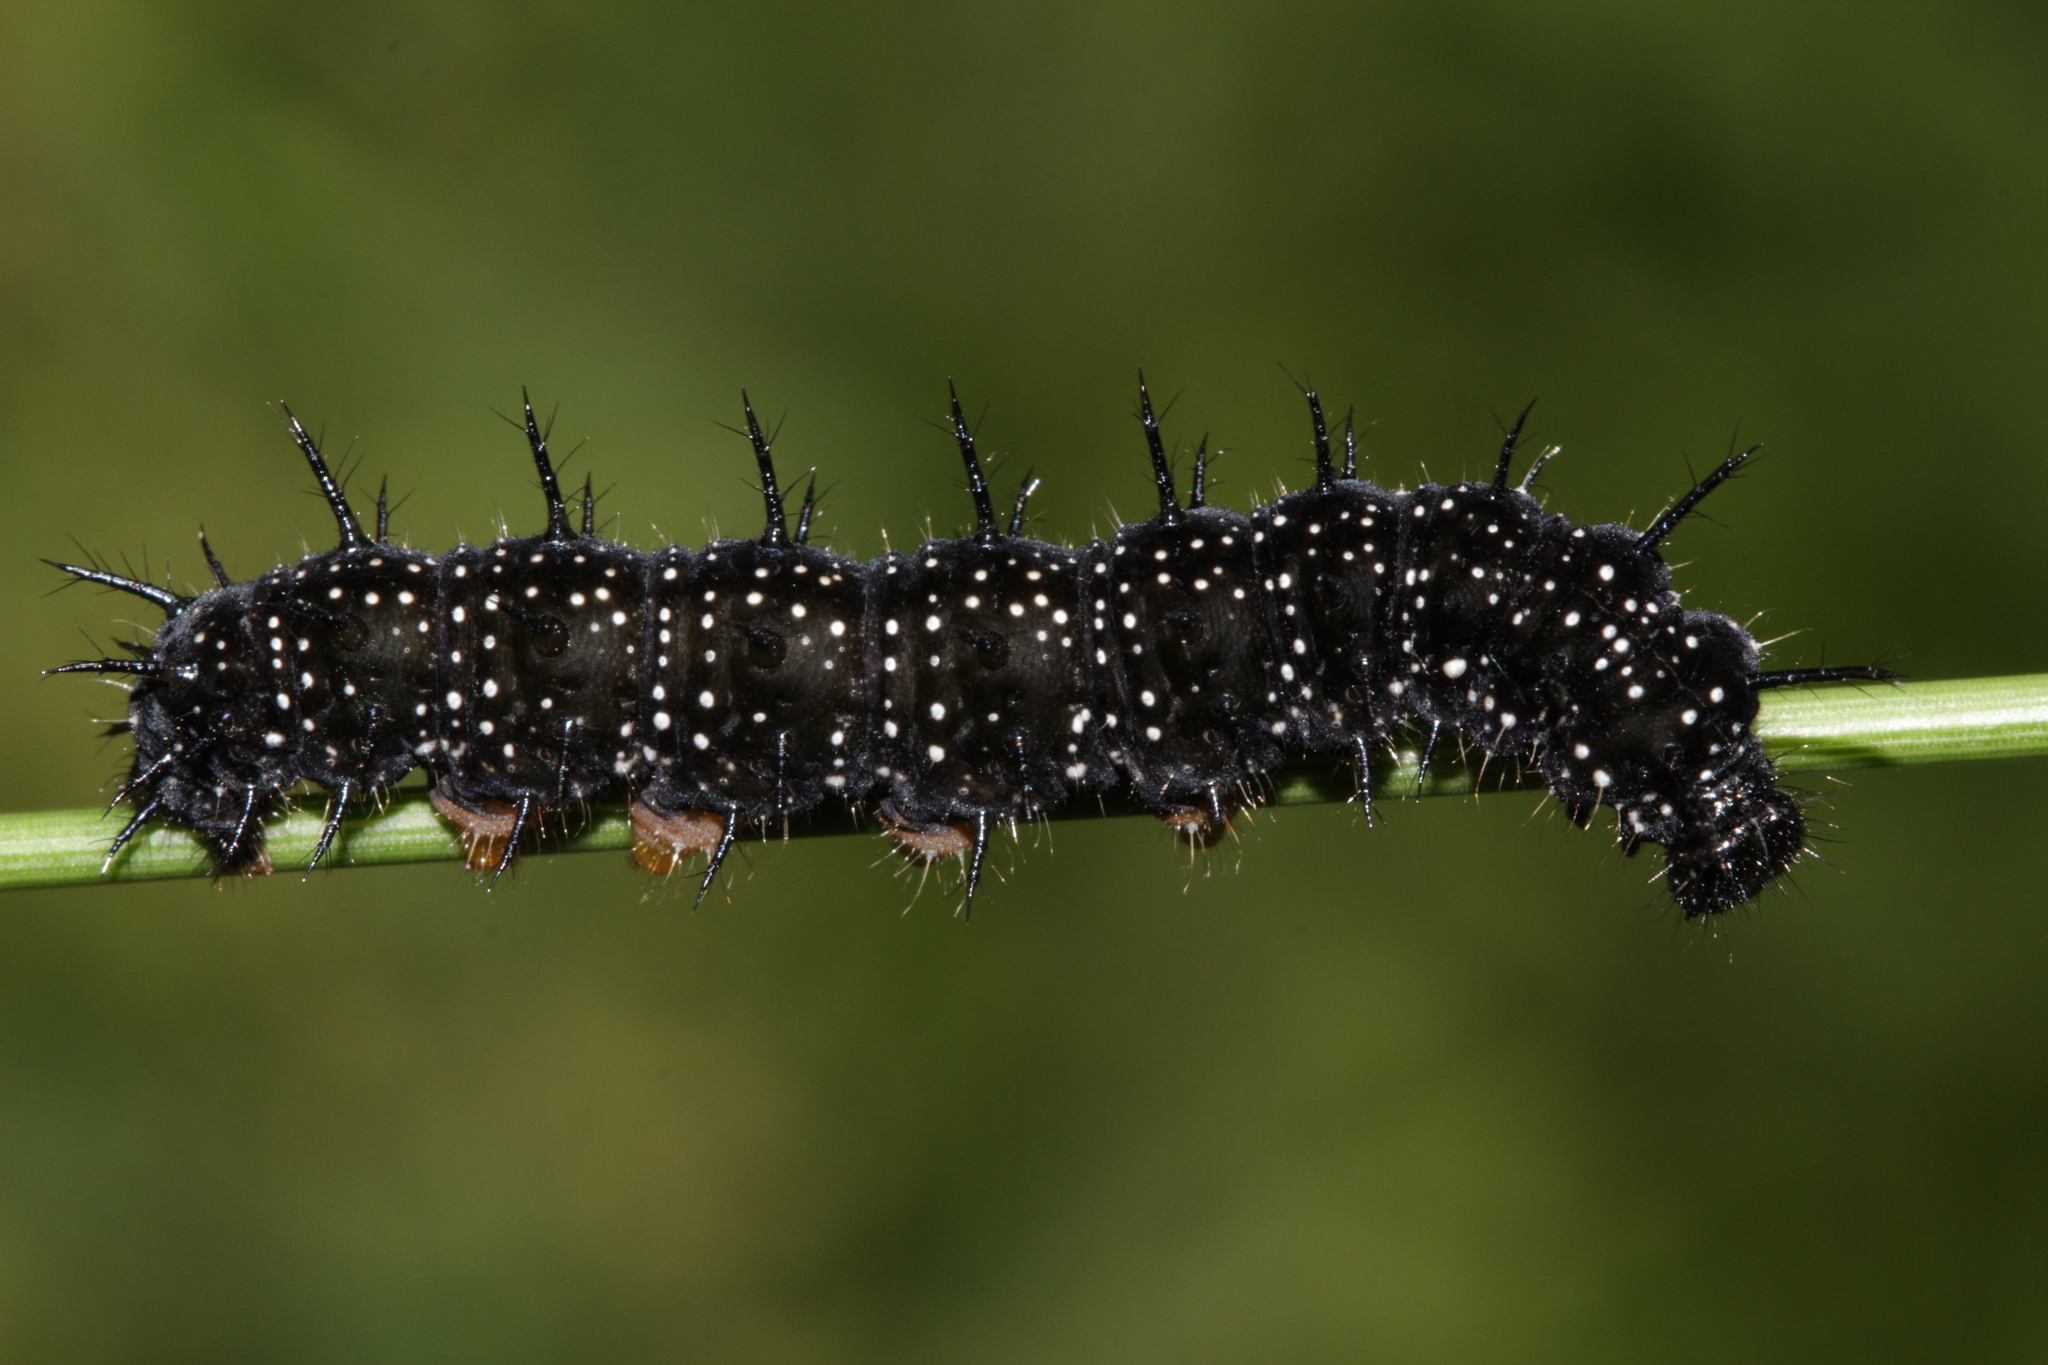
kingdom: Animalia
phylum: Arthropoda
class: Insecta
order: Lepidoptera
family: Nymphalidae
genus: Aglais
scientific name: Aglais io
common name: Peacock
